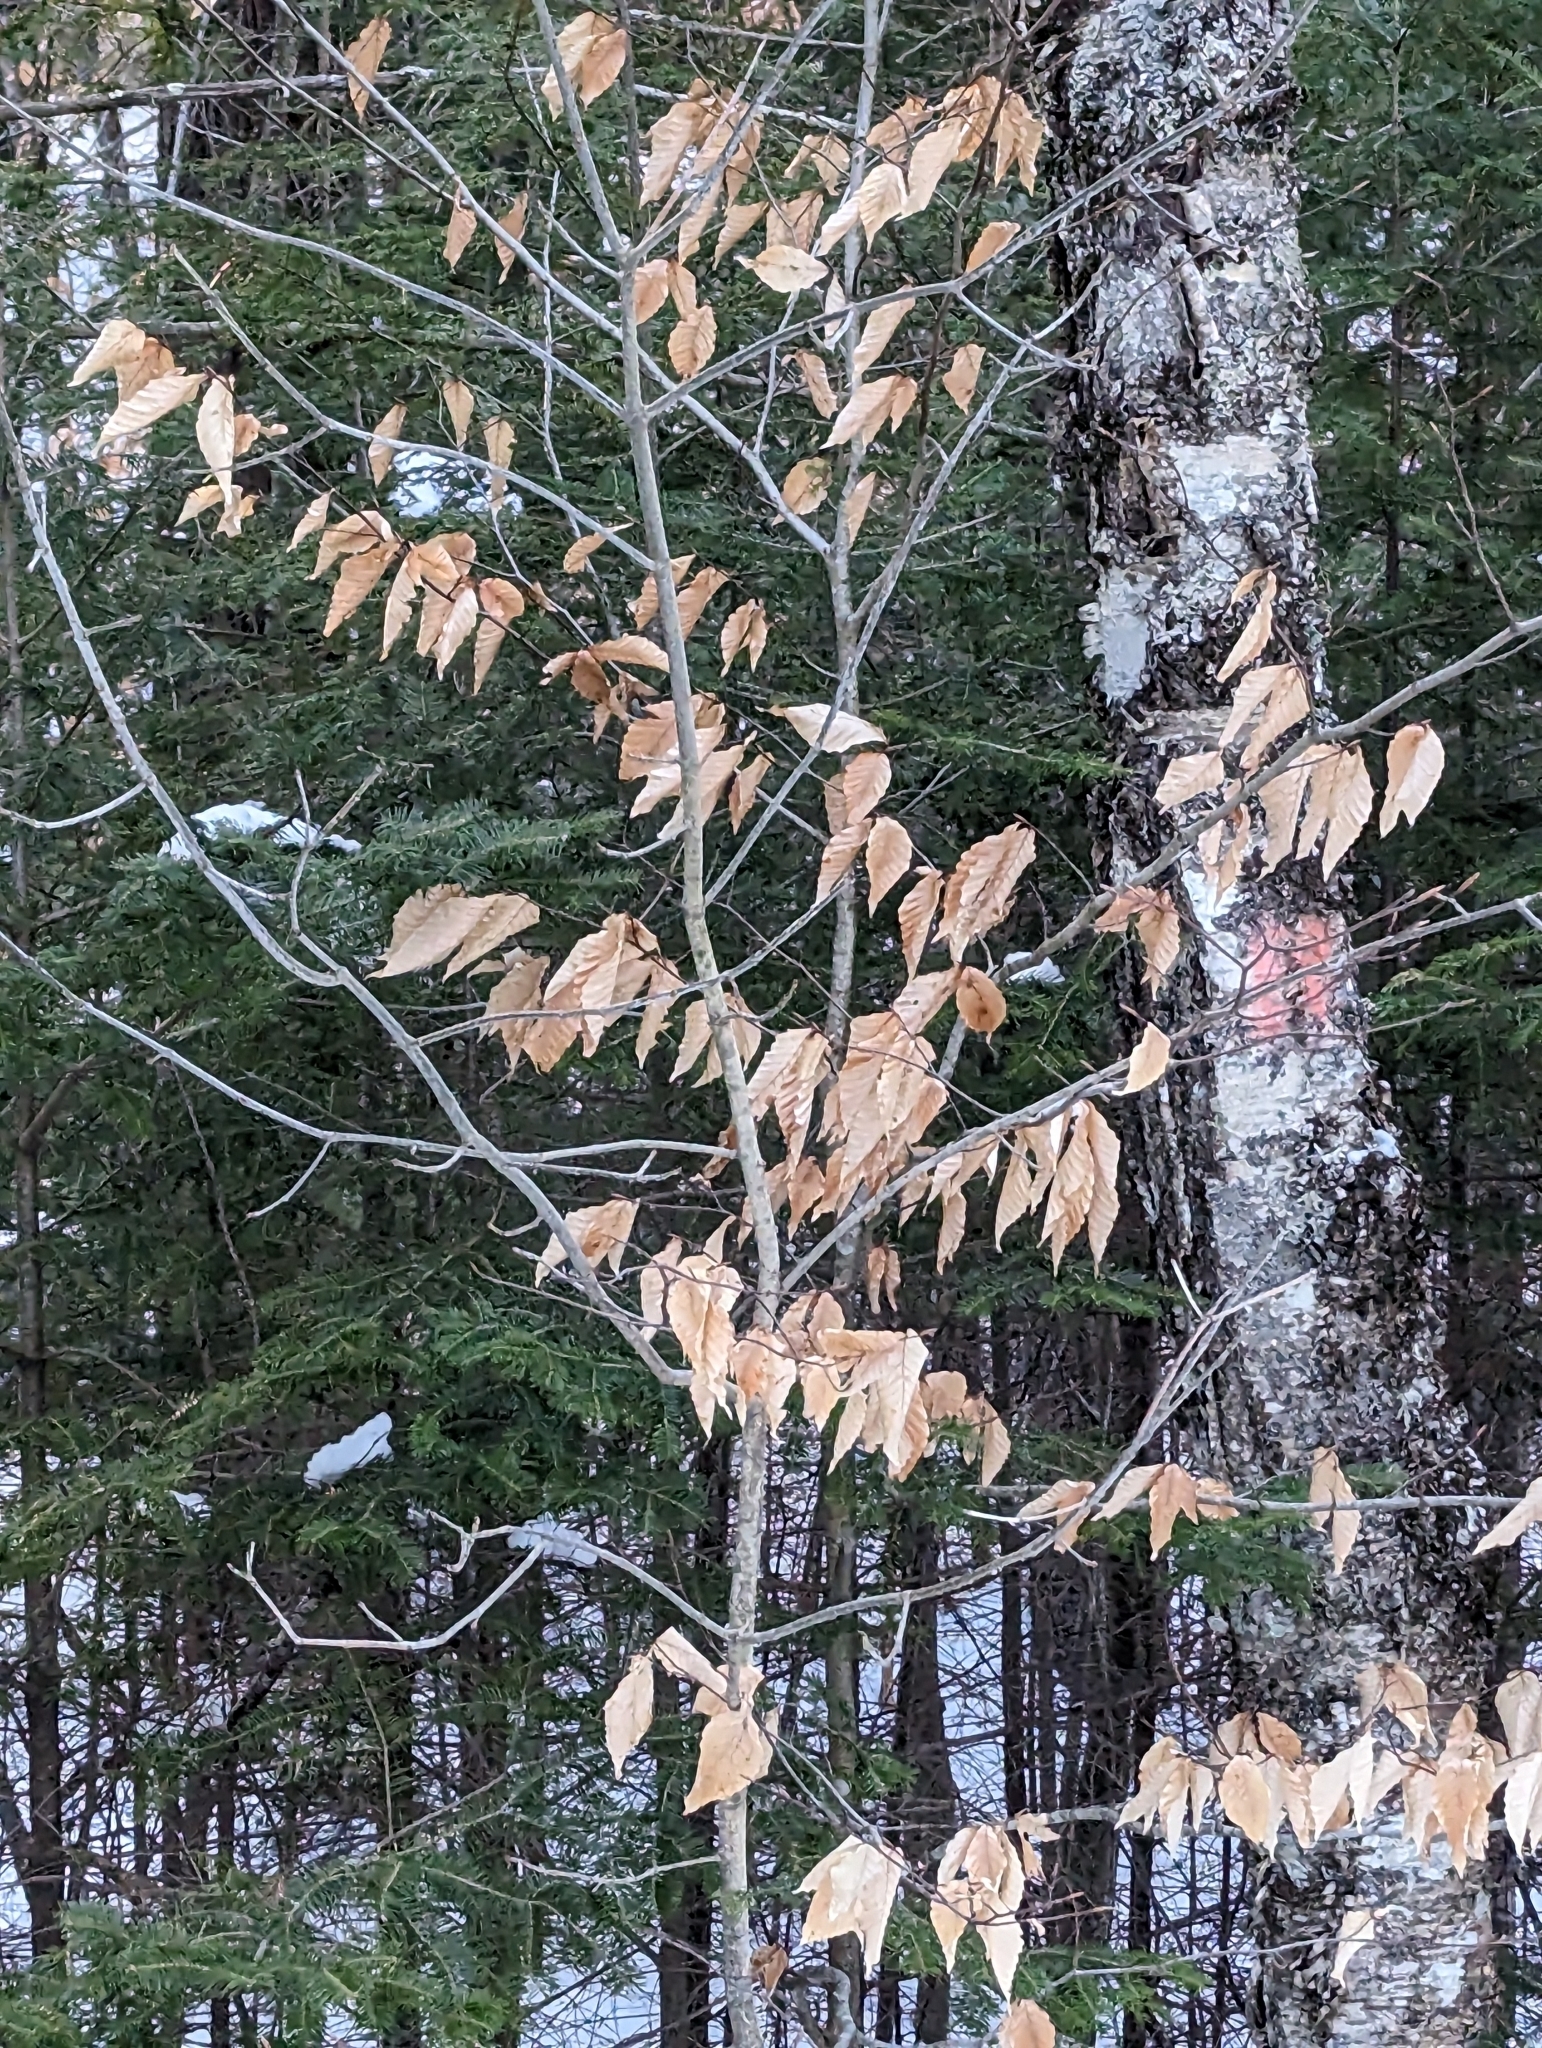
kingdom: Plantae
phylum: Tracheophyta
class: Magnoliopsida
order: Fagales
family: Fagaceae
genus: Fagus
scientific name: Fagus grandifolia
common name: American beech
